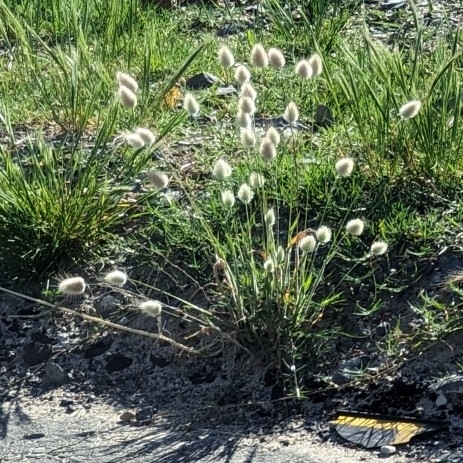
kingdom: Plantae
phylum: Tracheophyta
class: Liliopsida
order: Poales
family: Poaceae
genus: Lagurus
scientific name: Lagurus ovatus
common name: Hare's-tail
